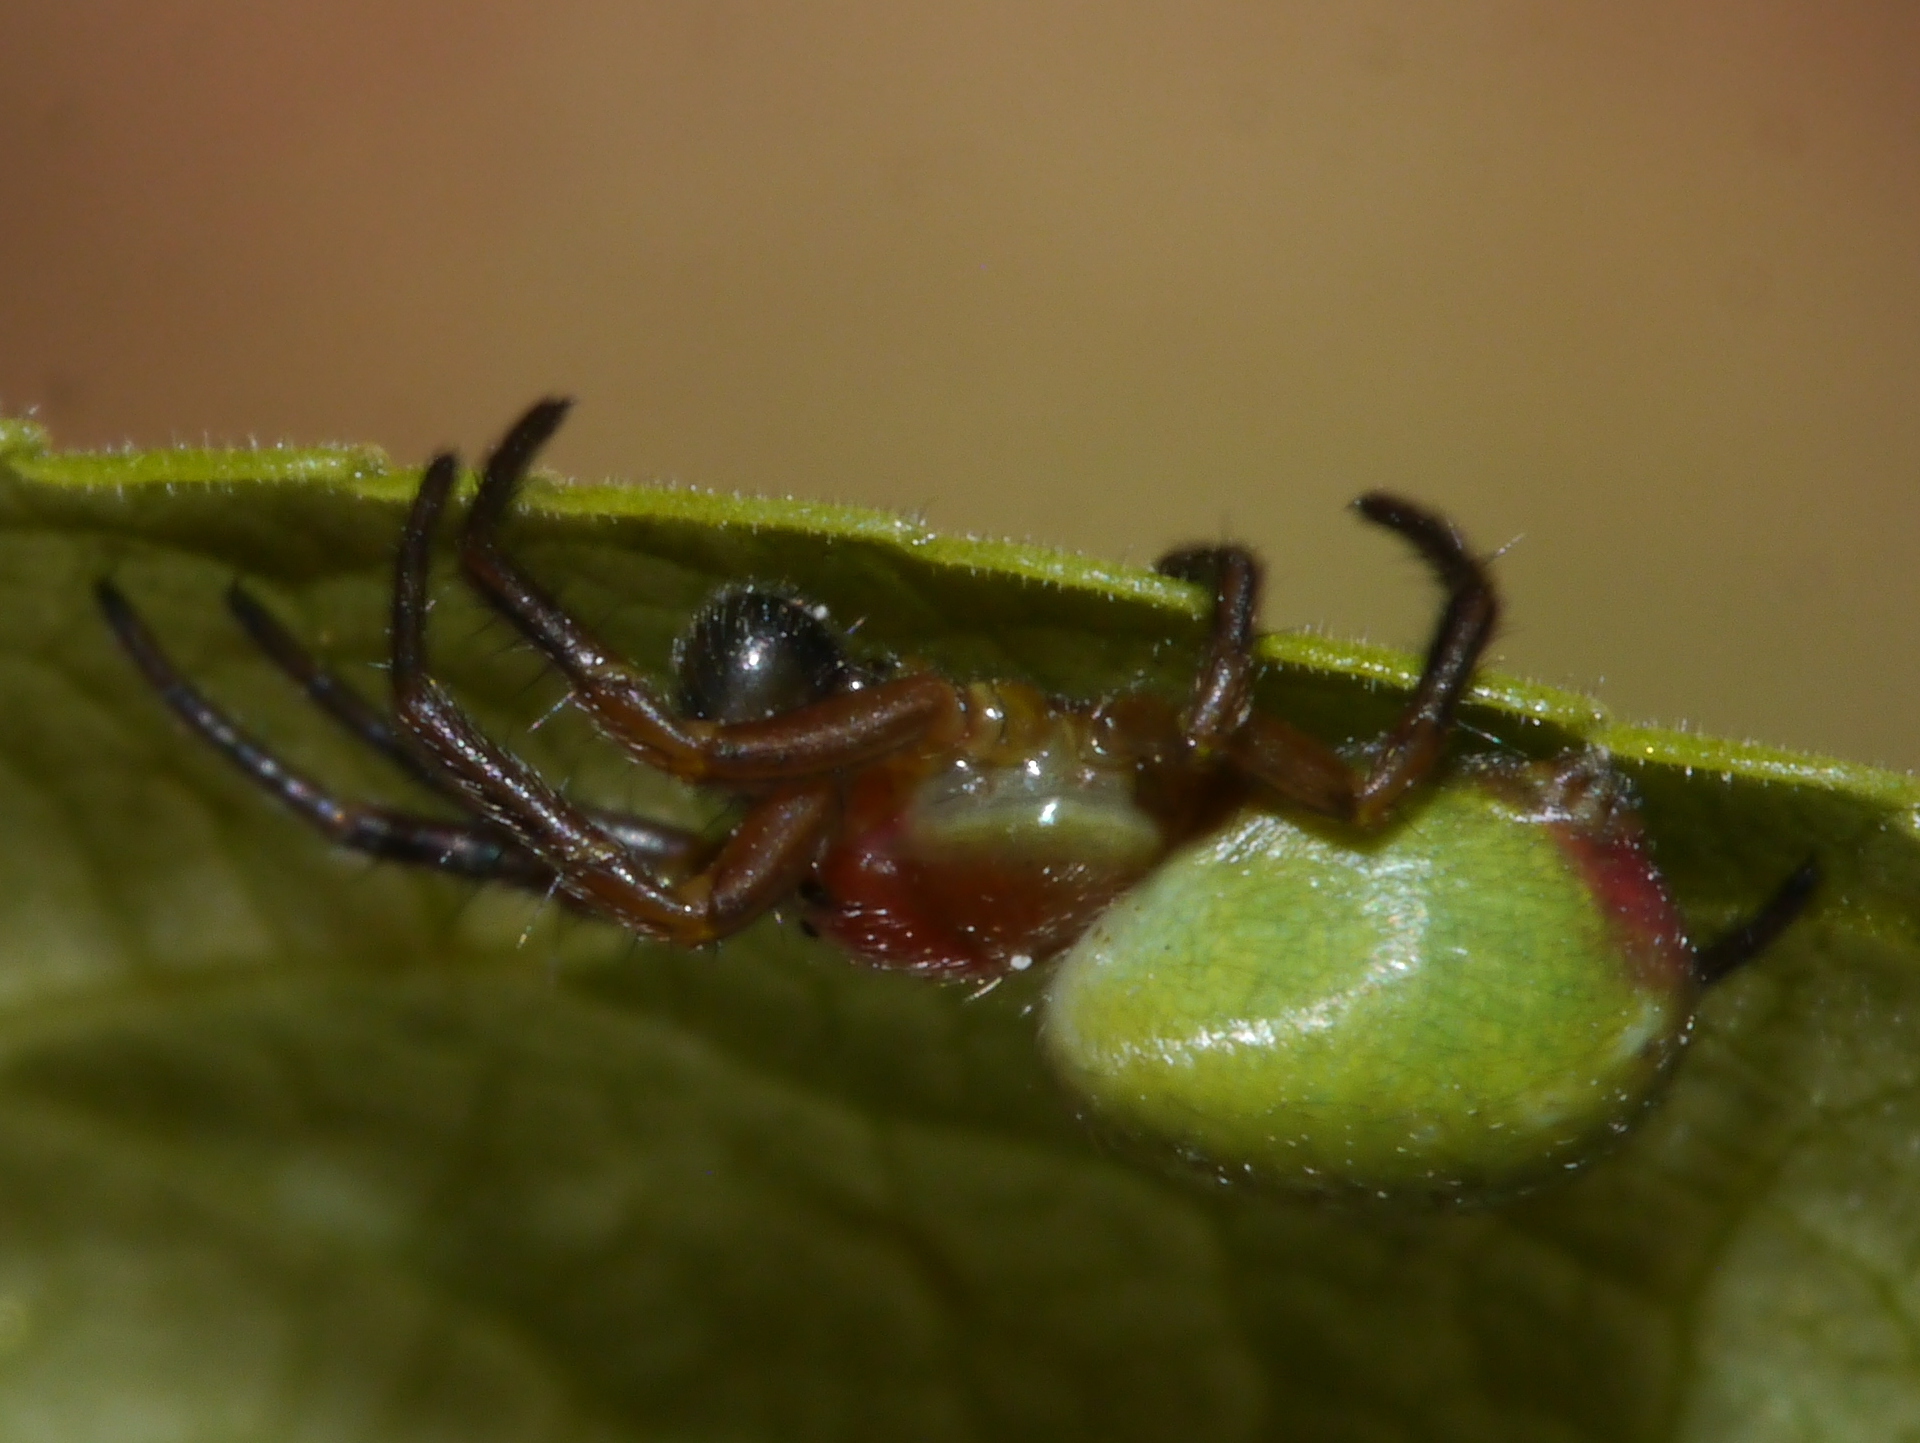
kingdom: Animalia
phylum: Arthropoda
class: Arachnida
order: Araneae
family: Araneidae
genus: Araniella
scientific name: Araniella proxima
